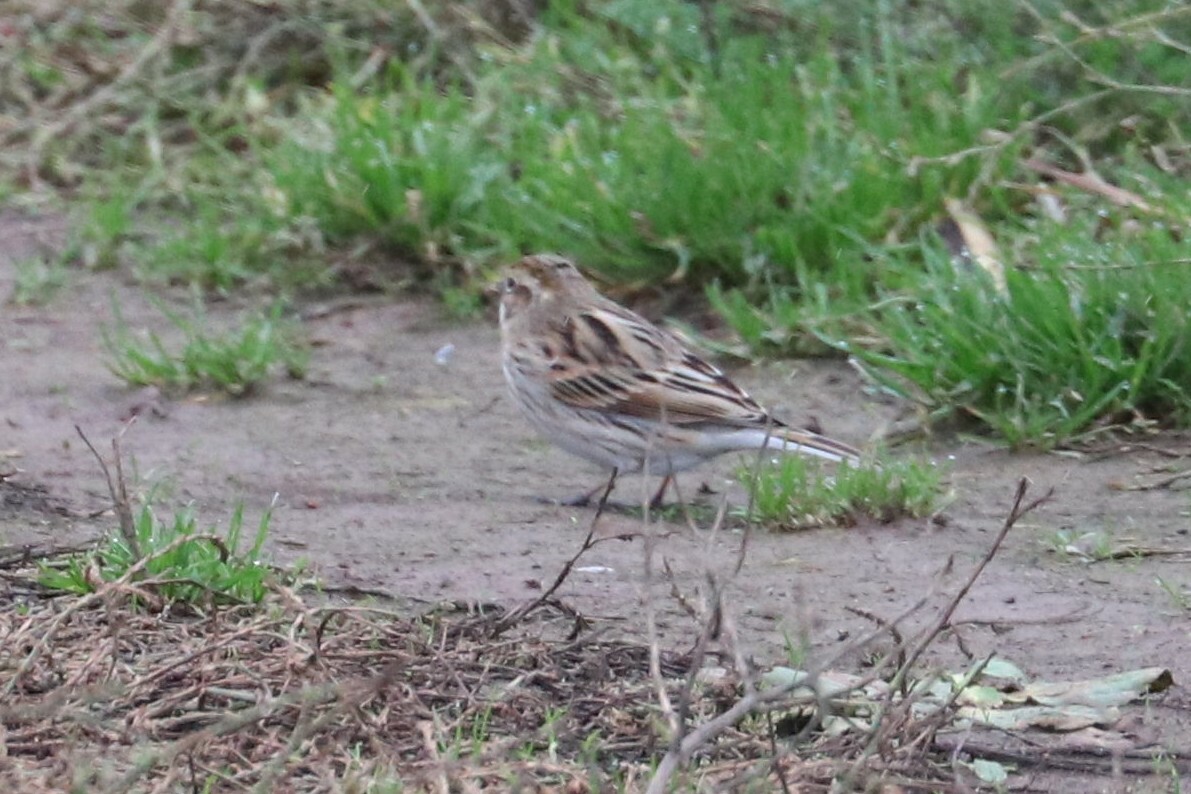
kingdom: Animalia
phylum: Chordata
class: Aves
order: Passeriformes
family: Emberizidae
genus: Emberiza
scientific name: Emberiza schoeniclus
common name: Reed bunting
